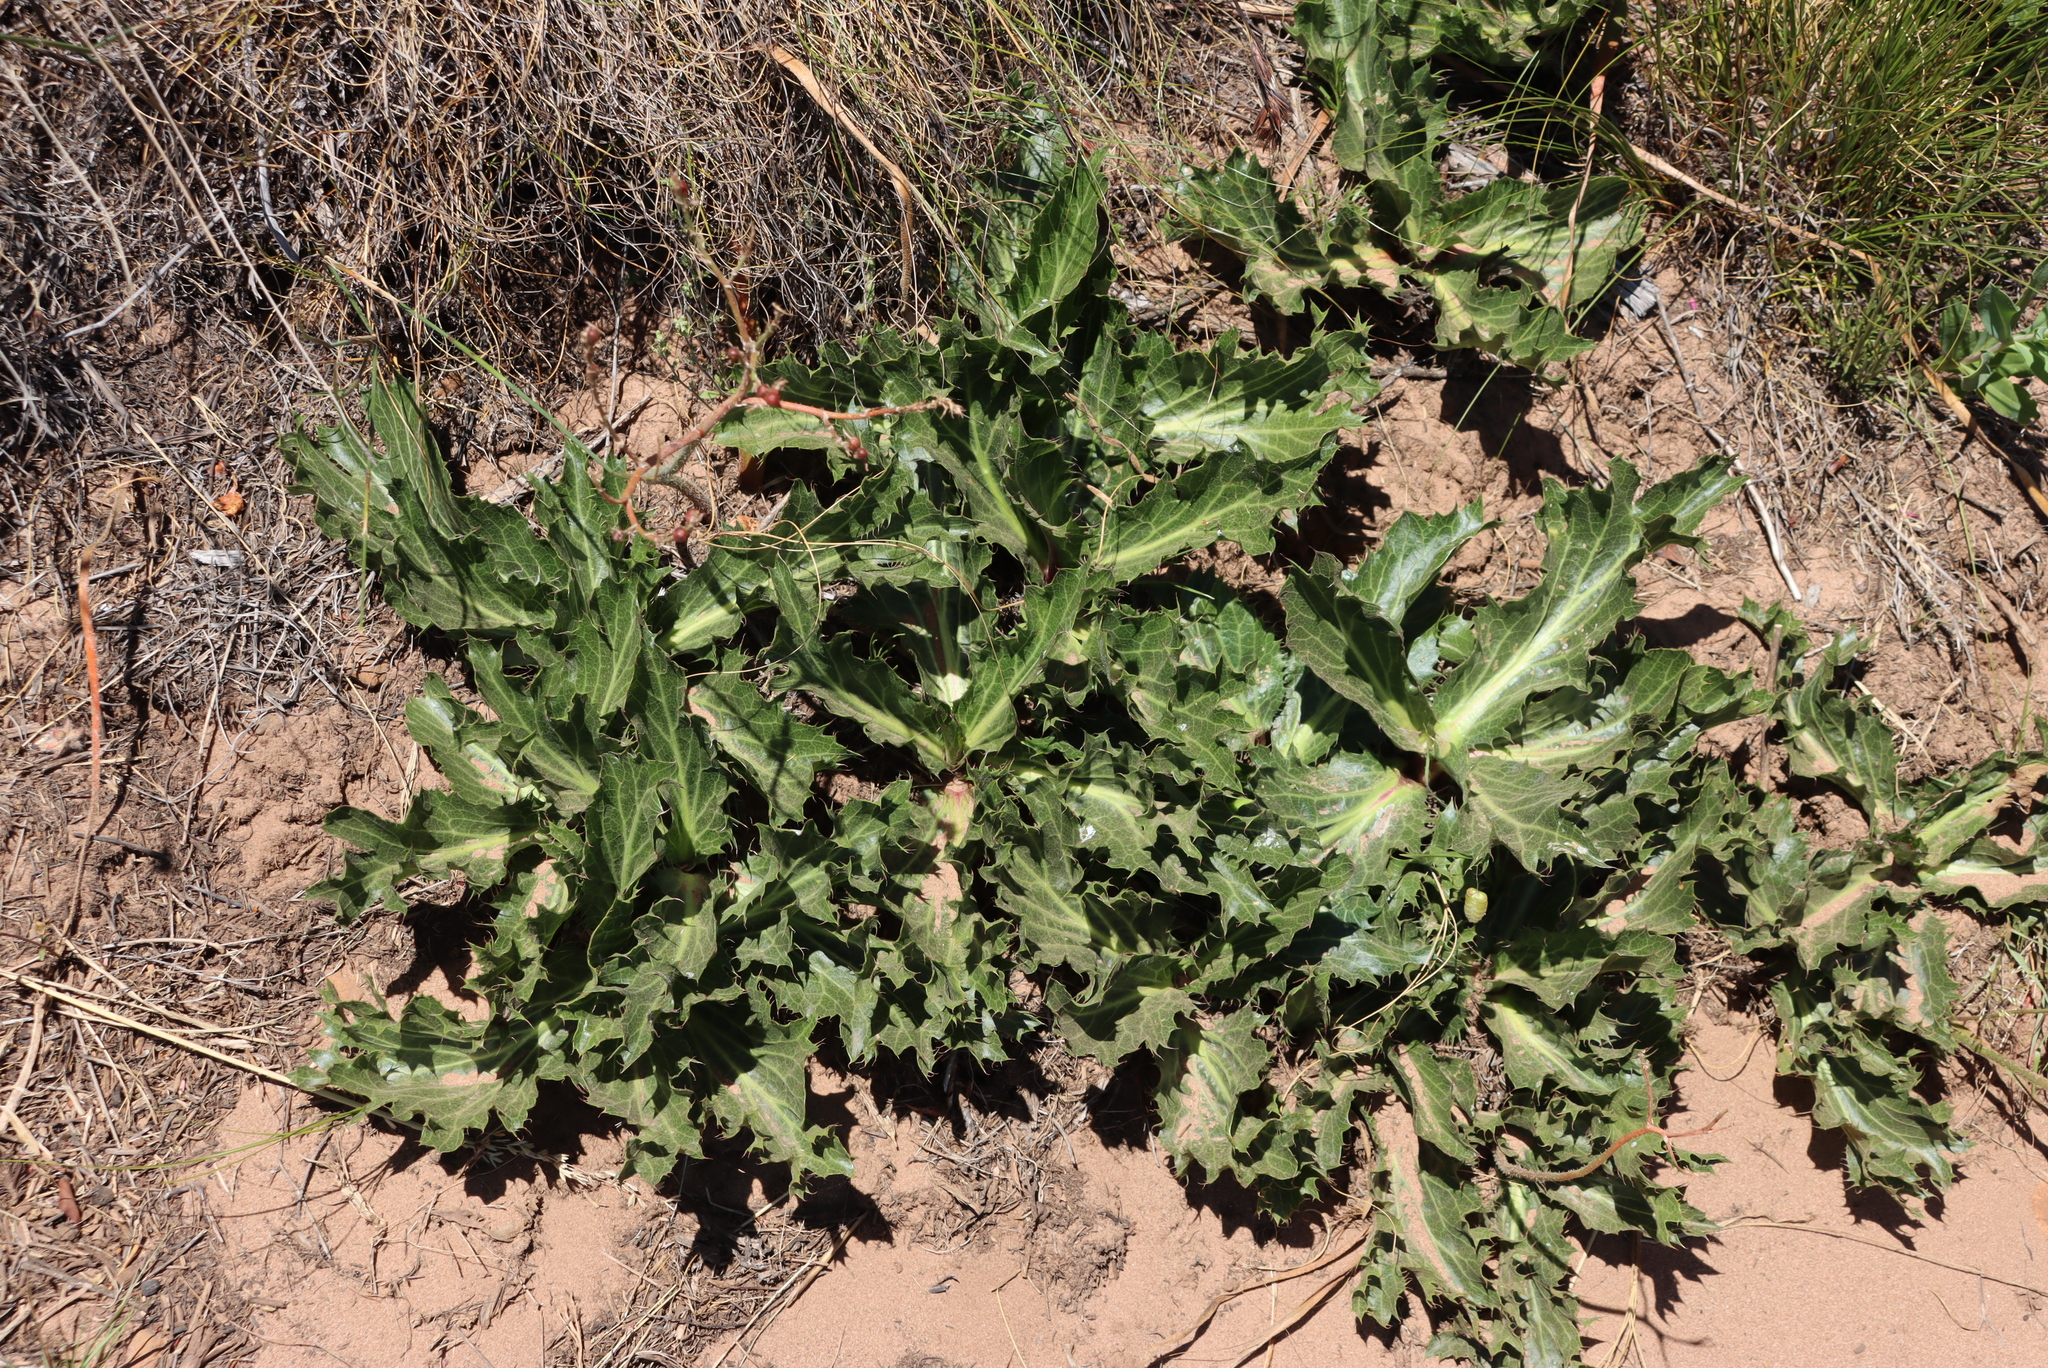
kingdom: Plantae
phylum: Tracheophyta
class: Magnoliopsida
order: Apiales
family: Apiaceae
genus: Lichtensteinia
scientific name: Lichtensteinia lacera
